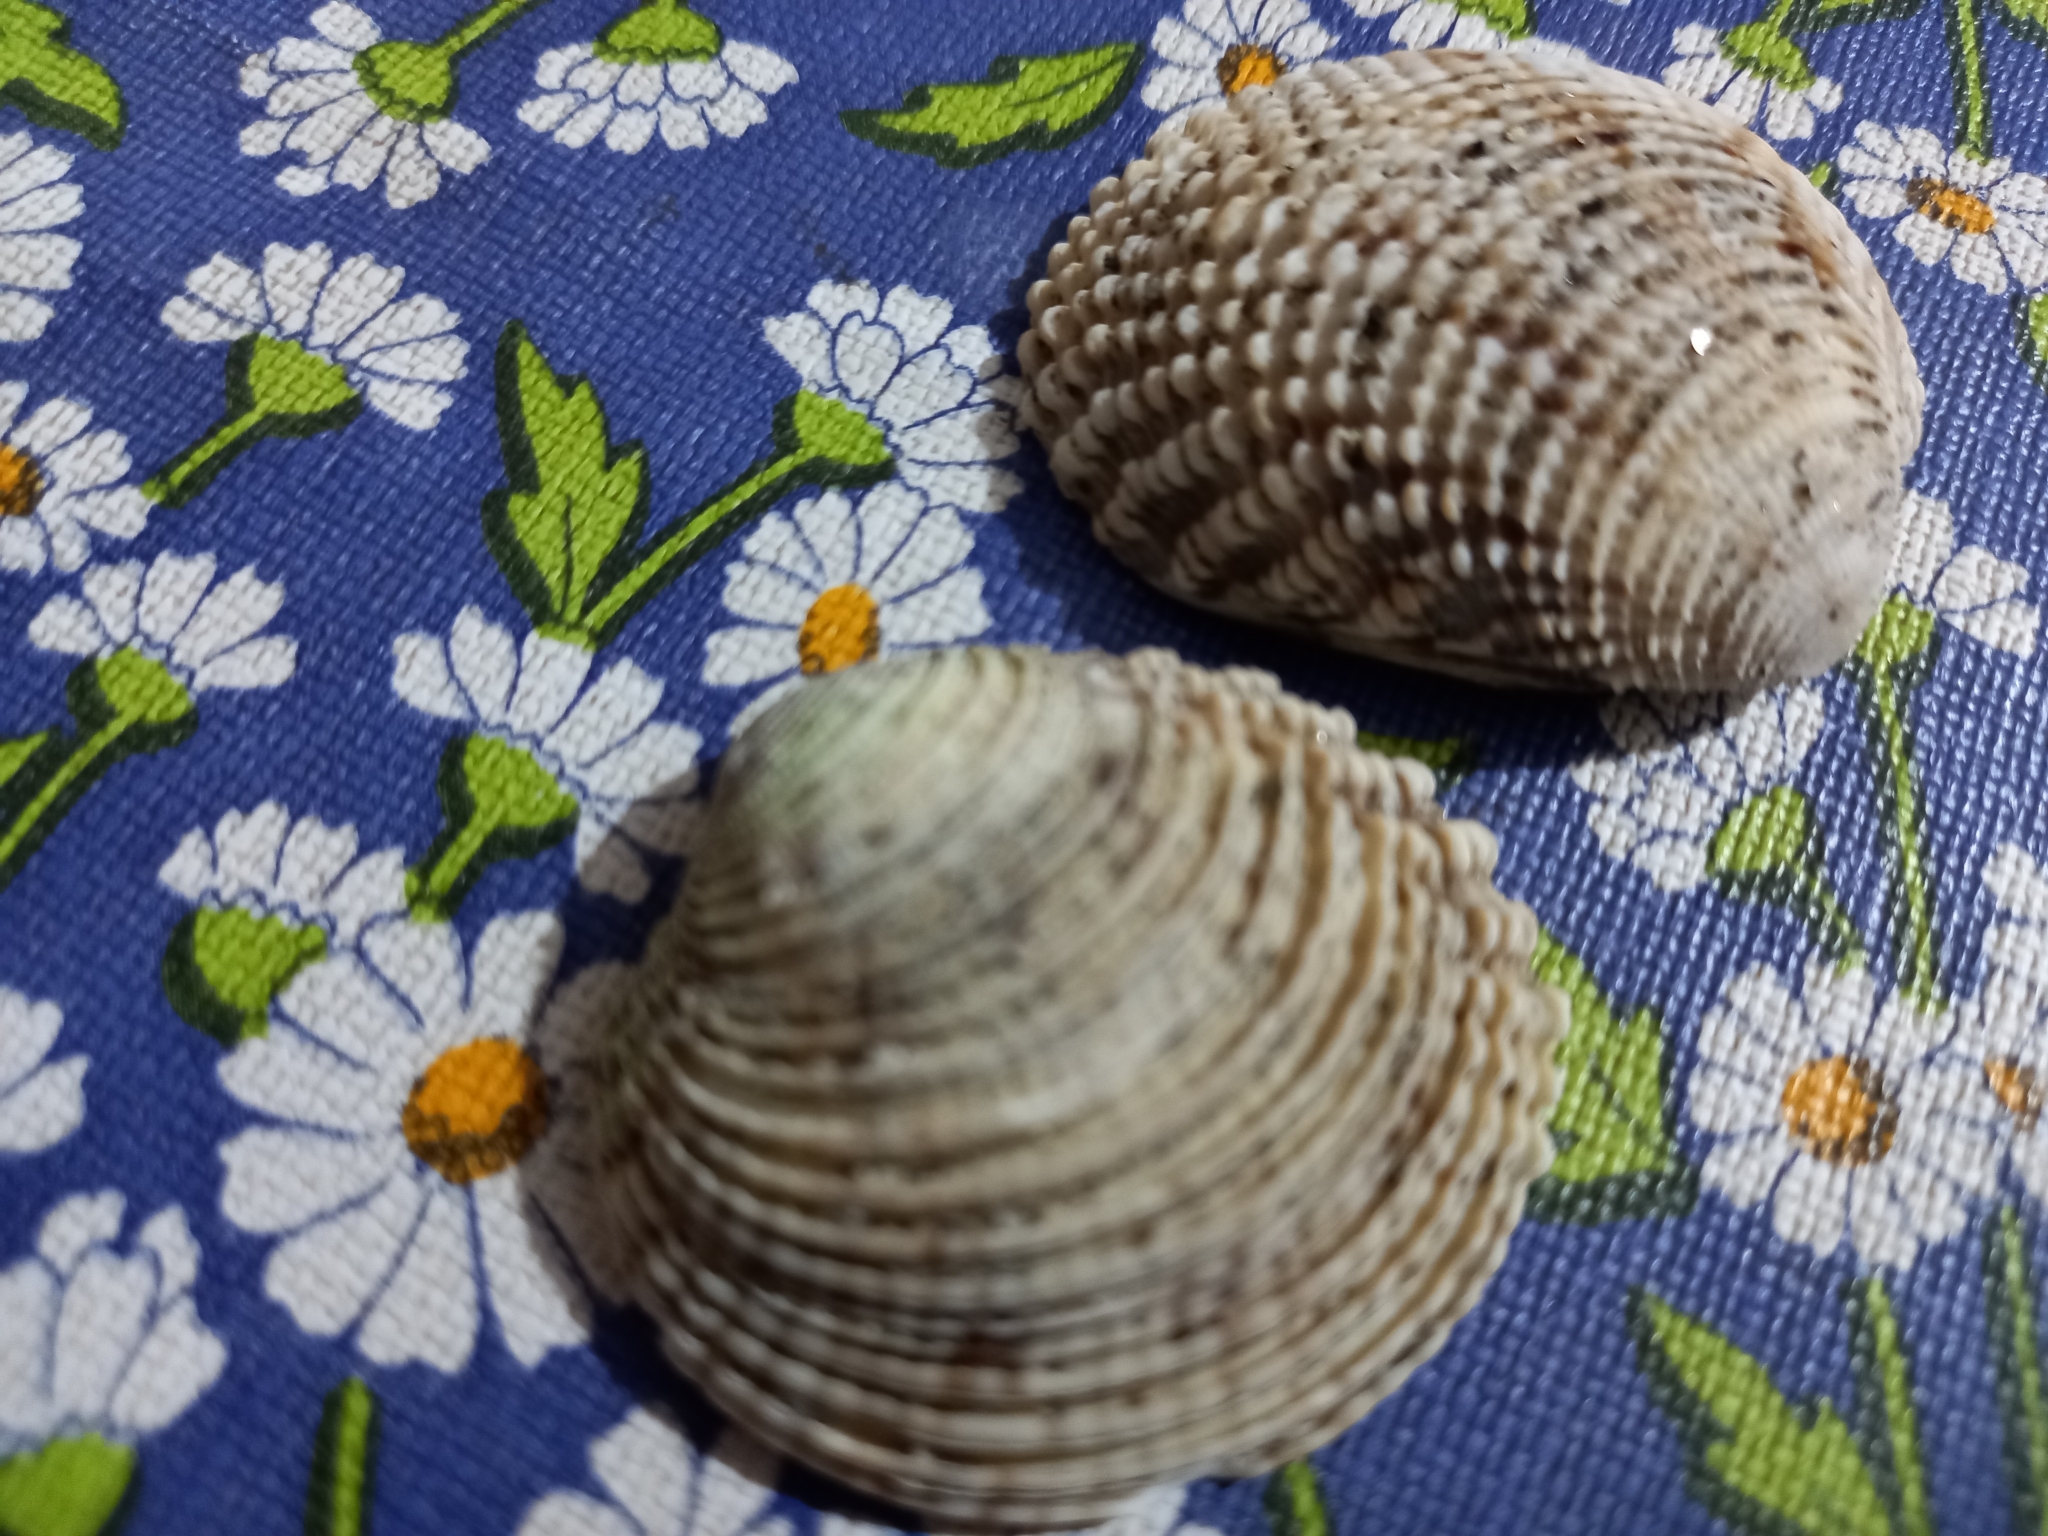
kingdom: Animalia
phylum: Mollusca
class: Bivalvia
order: Venerida
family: Veneridae
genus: Venus
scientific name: Venus verrucosa
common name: Warty venus
